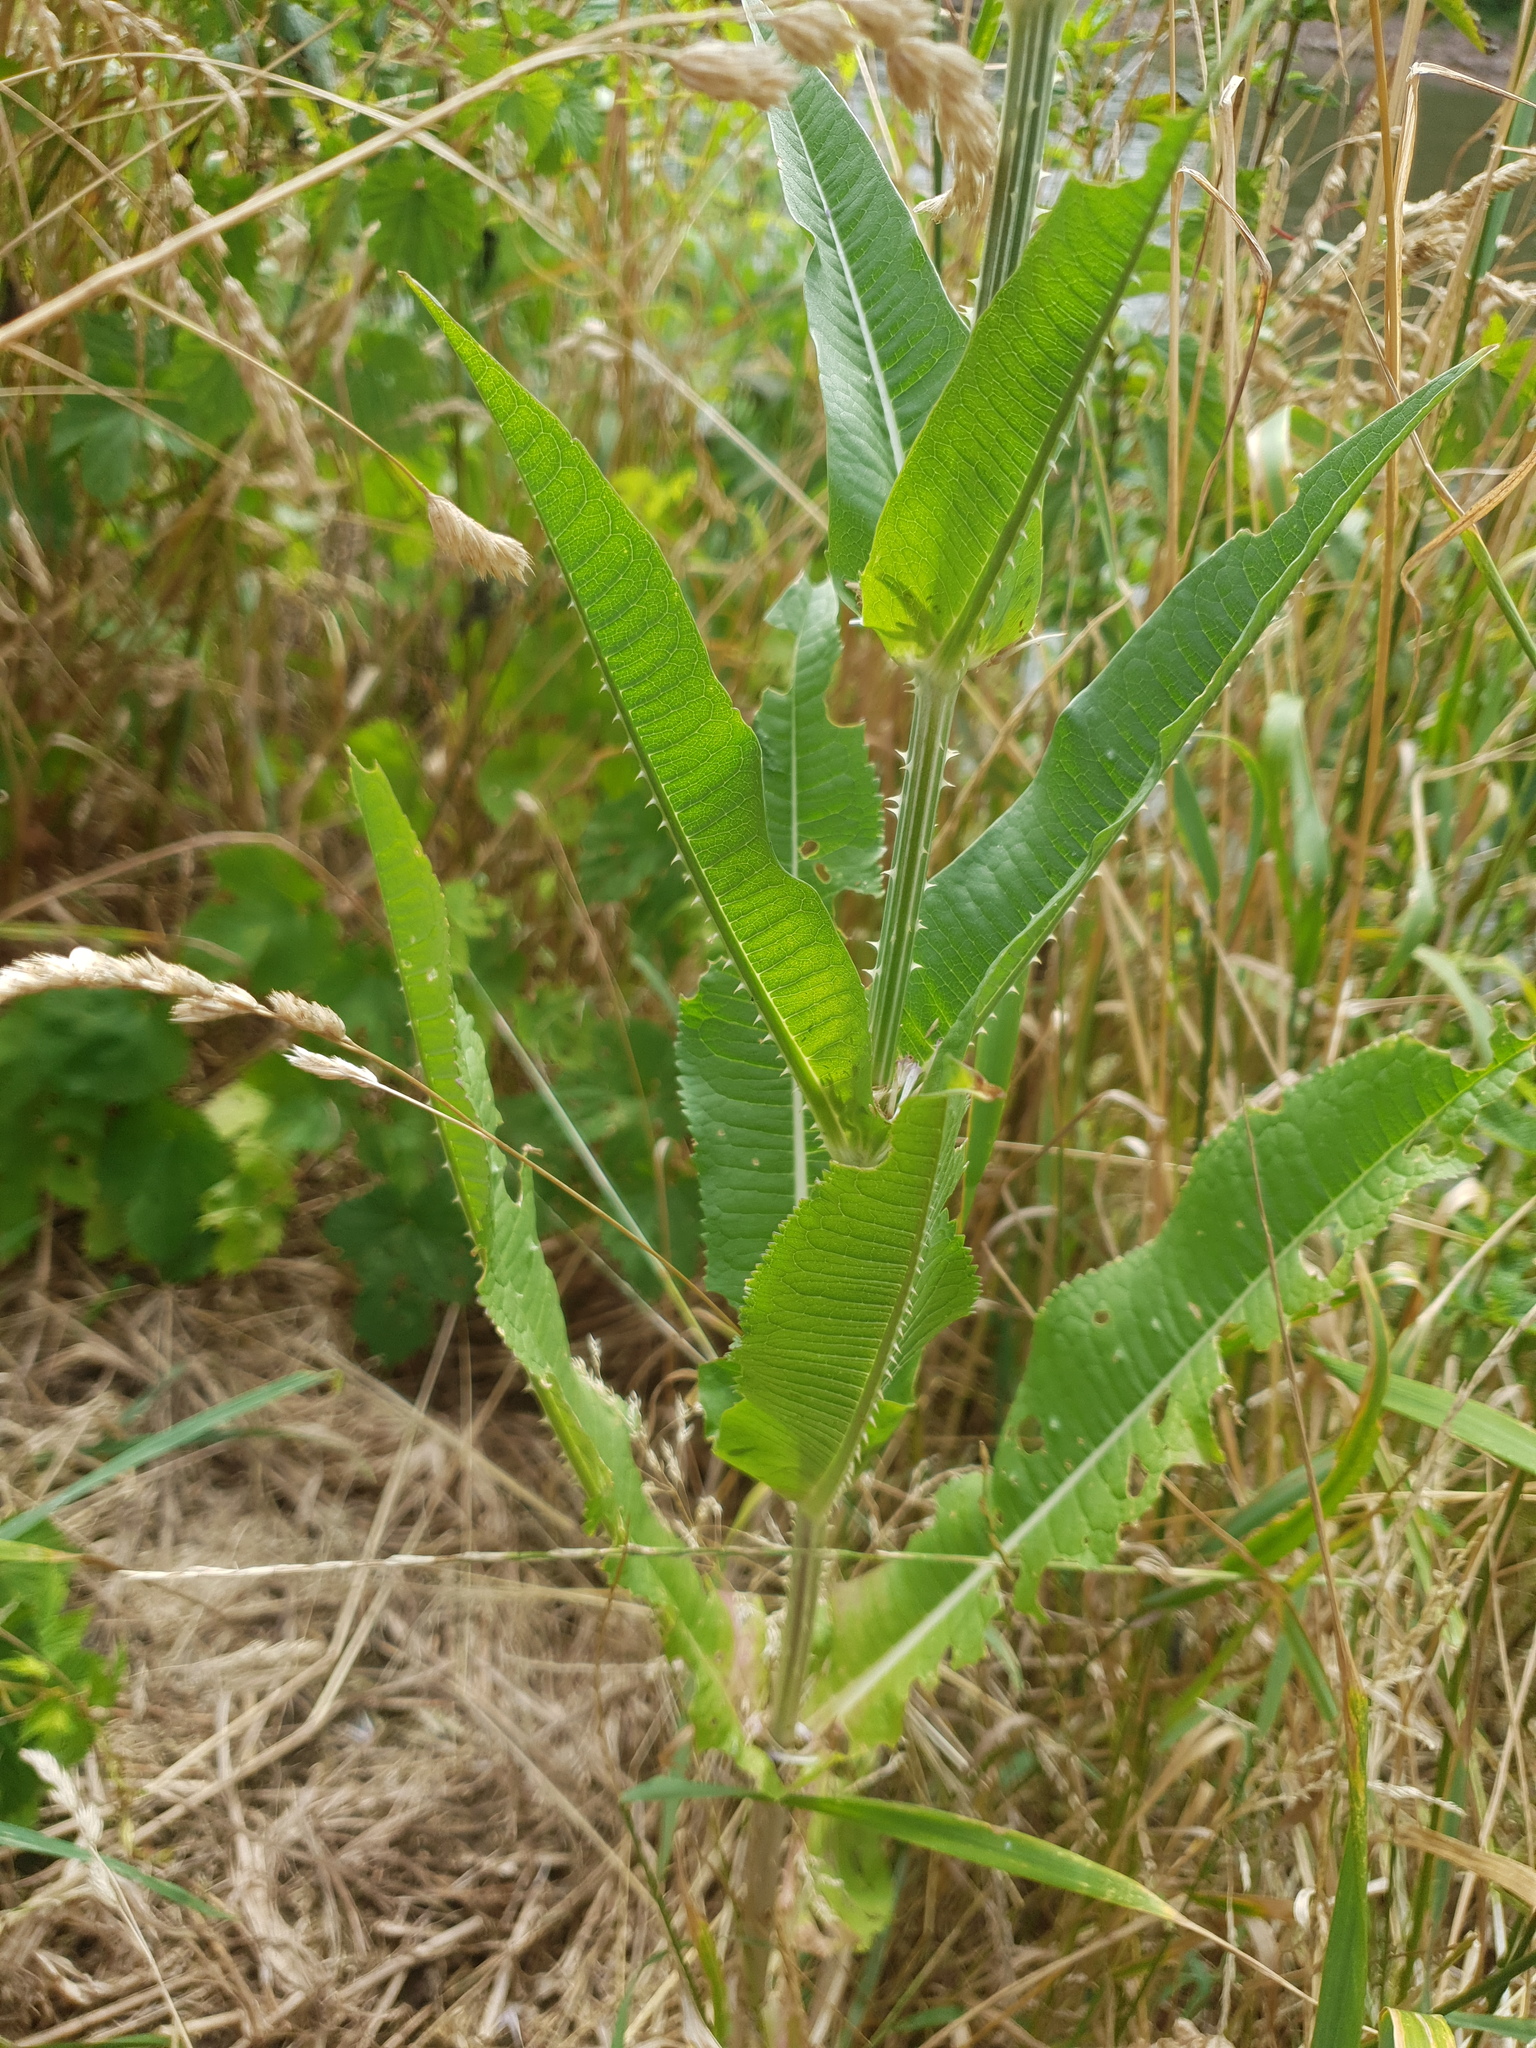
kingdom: Plantae
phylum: Tracheophyta
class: Magnoliopsida
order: Dipsacales
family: Caprifoliaceae
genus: Dipsacus
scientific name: Dipsacus fullonum
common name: Teasel
